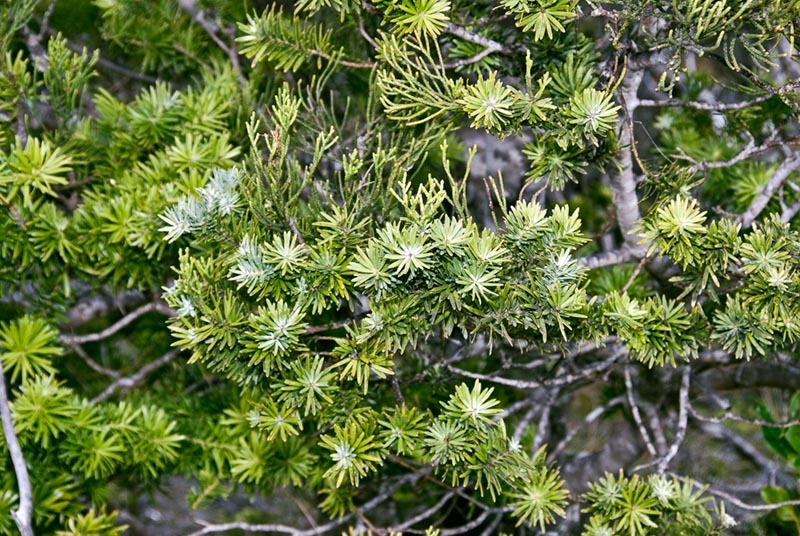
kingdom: Plantae
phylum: Tracheophyta
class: Pinopsida
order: Pinales
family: Podocarpaceae
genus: Halocarpus
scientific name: Halocarpus kirkii
